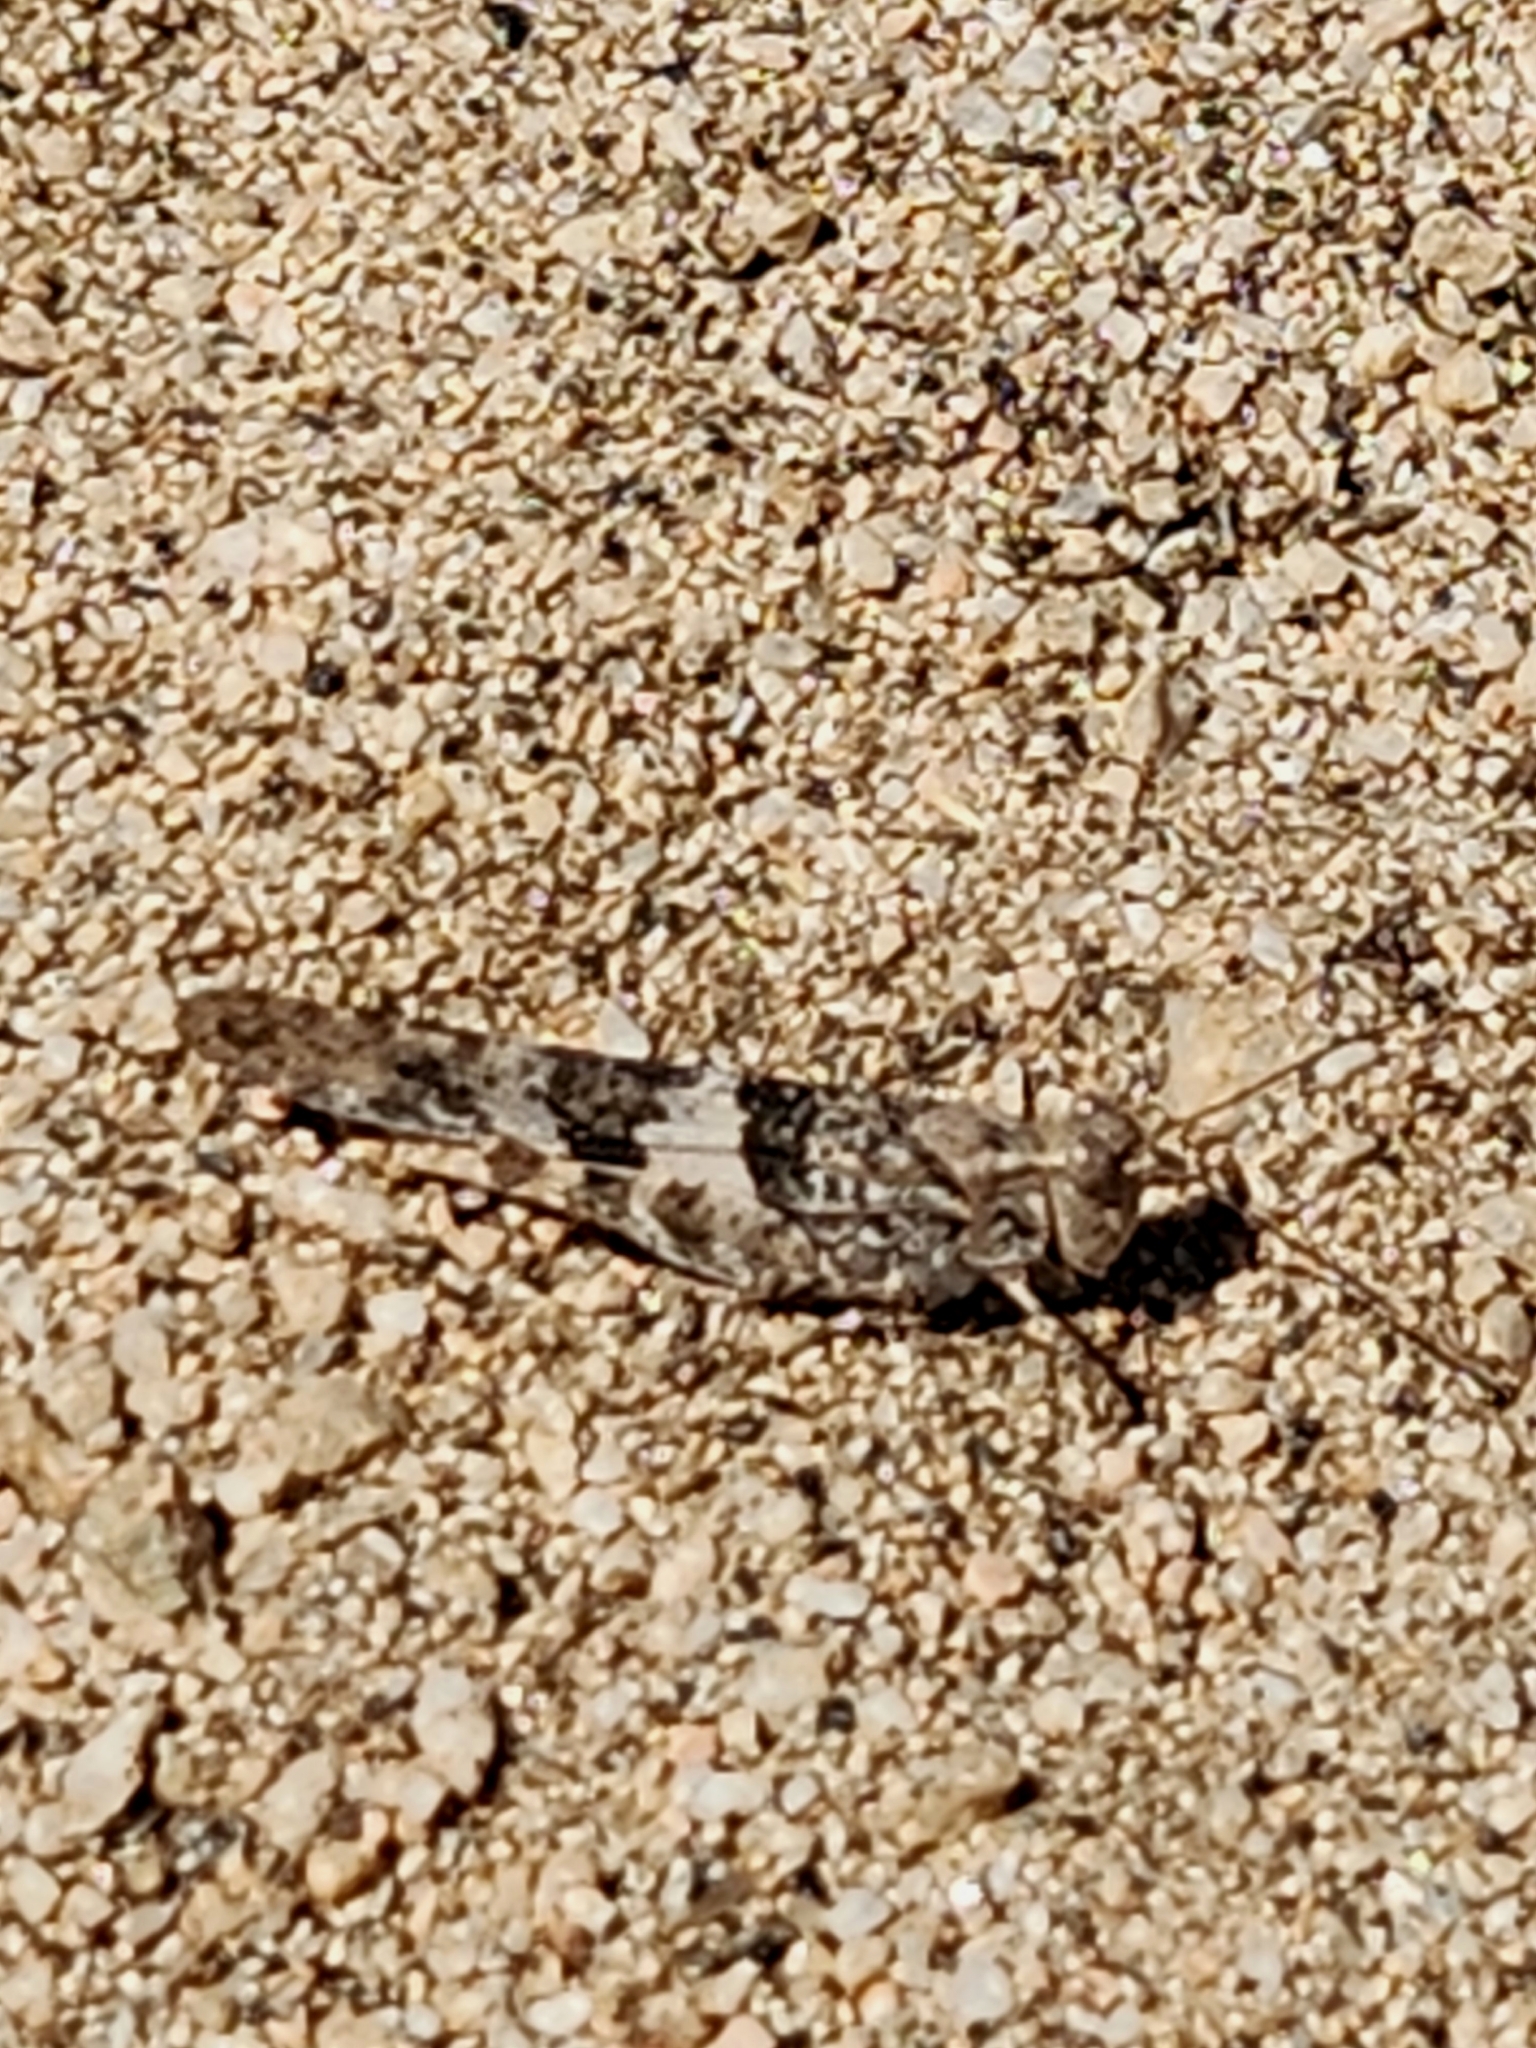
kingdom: Animalia
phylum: Arthropoda
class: Insecta
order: Orthoptera
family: Acrididae
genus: Trimerotropis
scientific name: Trimerotropis pallidipennis
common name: Pallid-winged grasshopper
